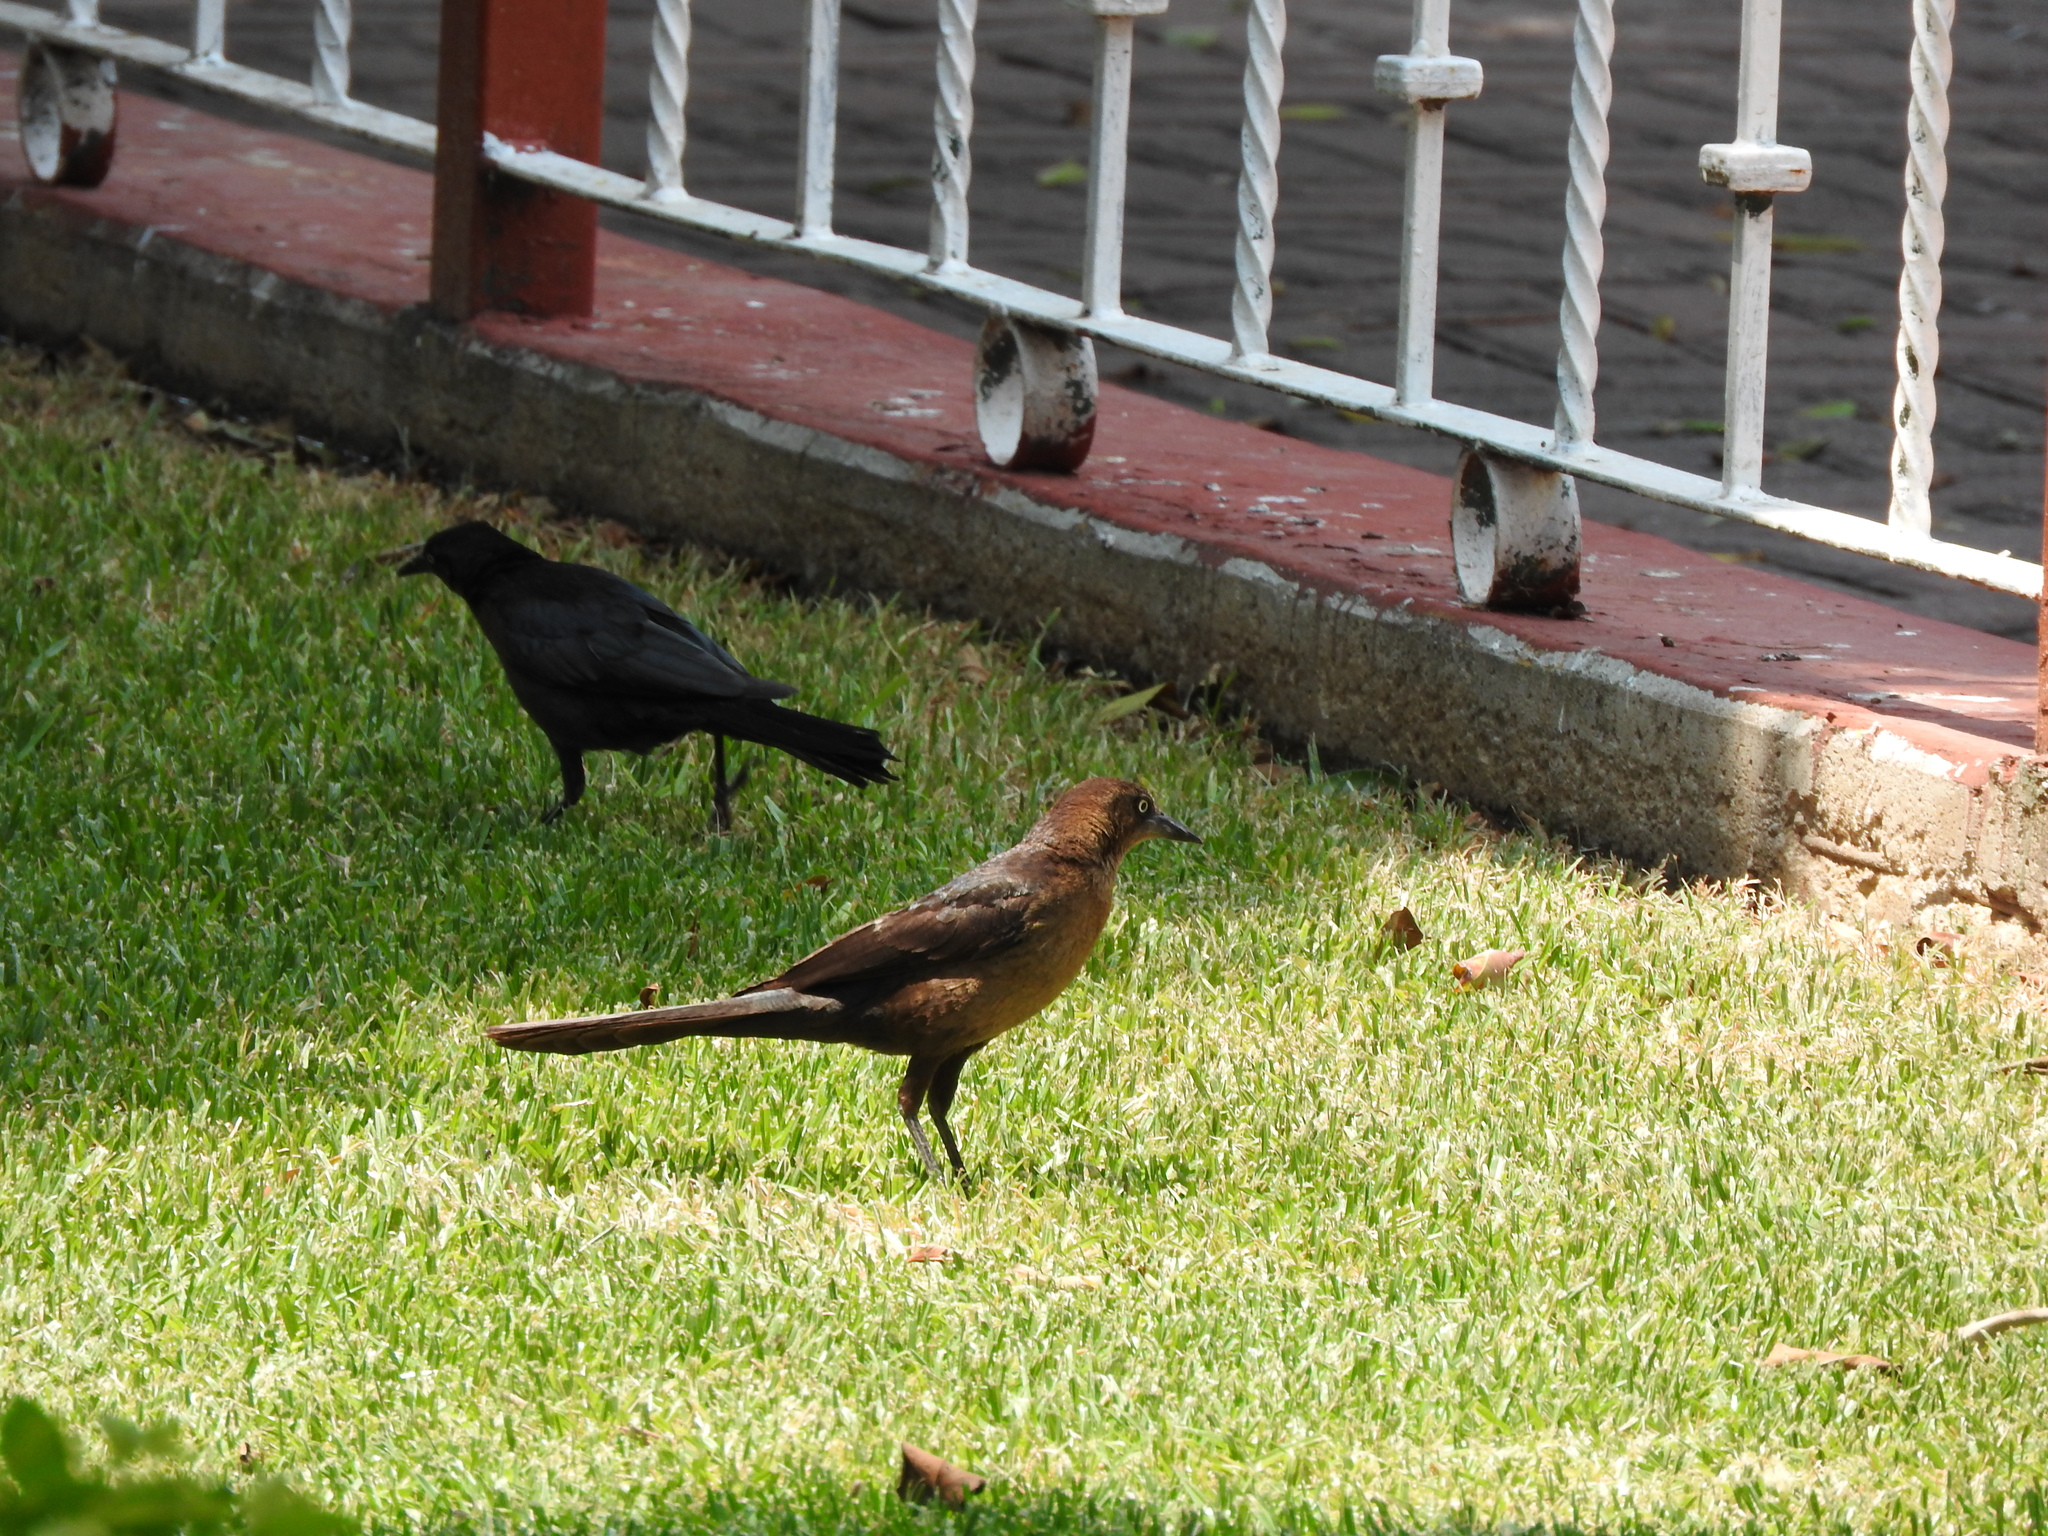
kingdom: Animalia
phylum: Chordata
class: Aves
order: Passeriformes
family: Icteridae
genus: Quiscalus
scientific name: Quiscalus mexicanus
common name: Great-tailed grackle
